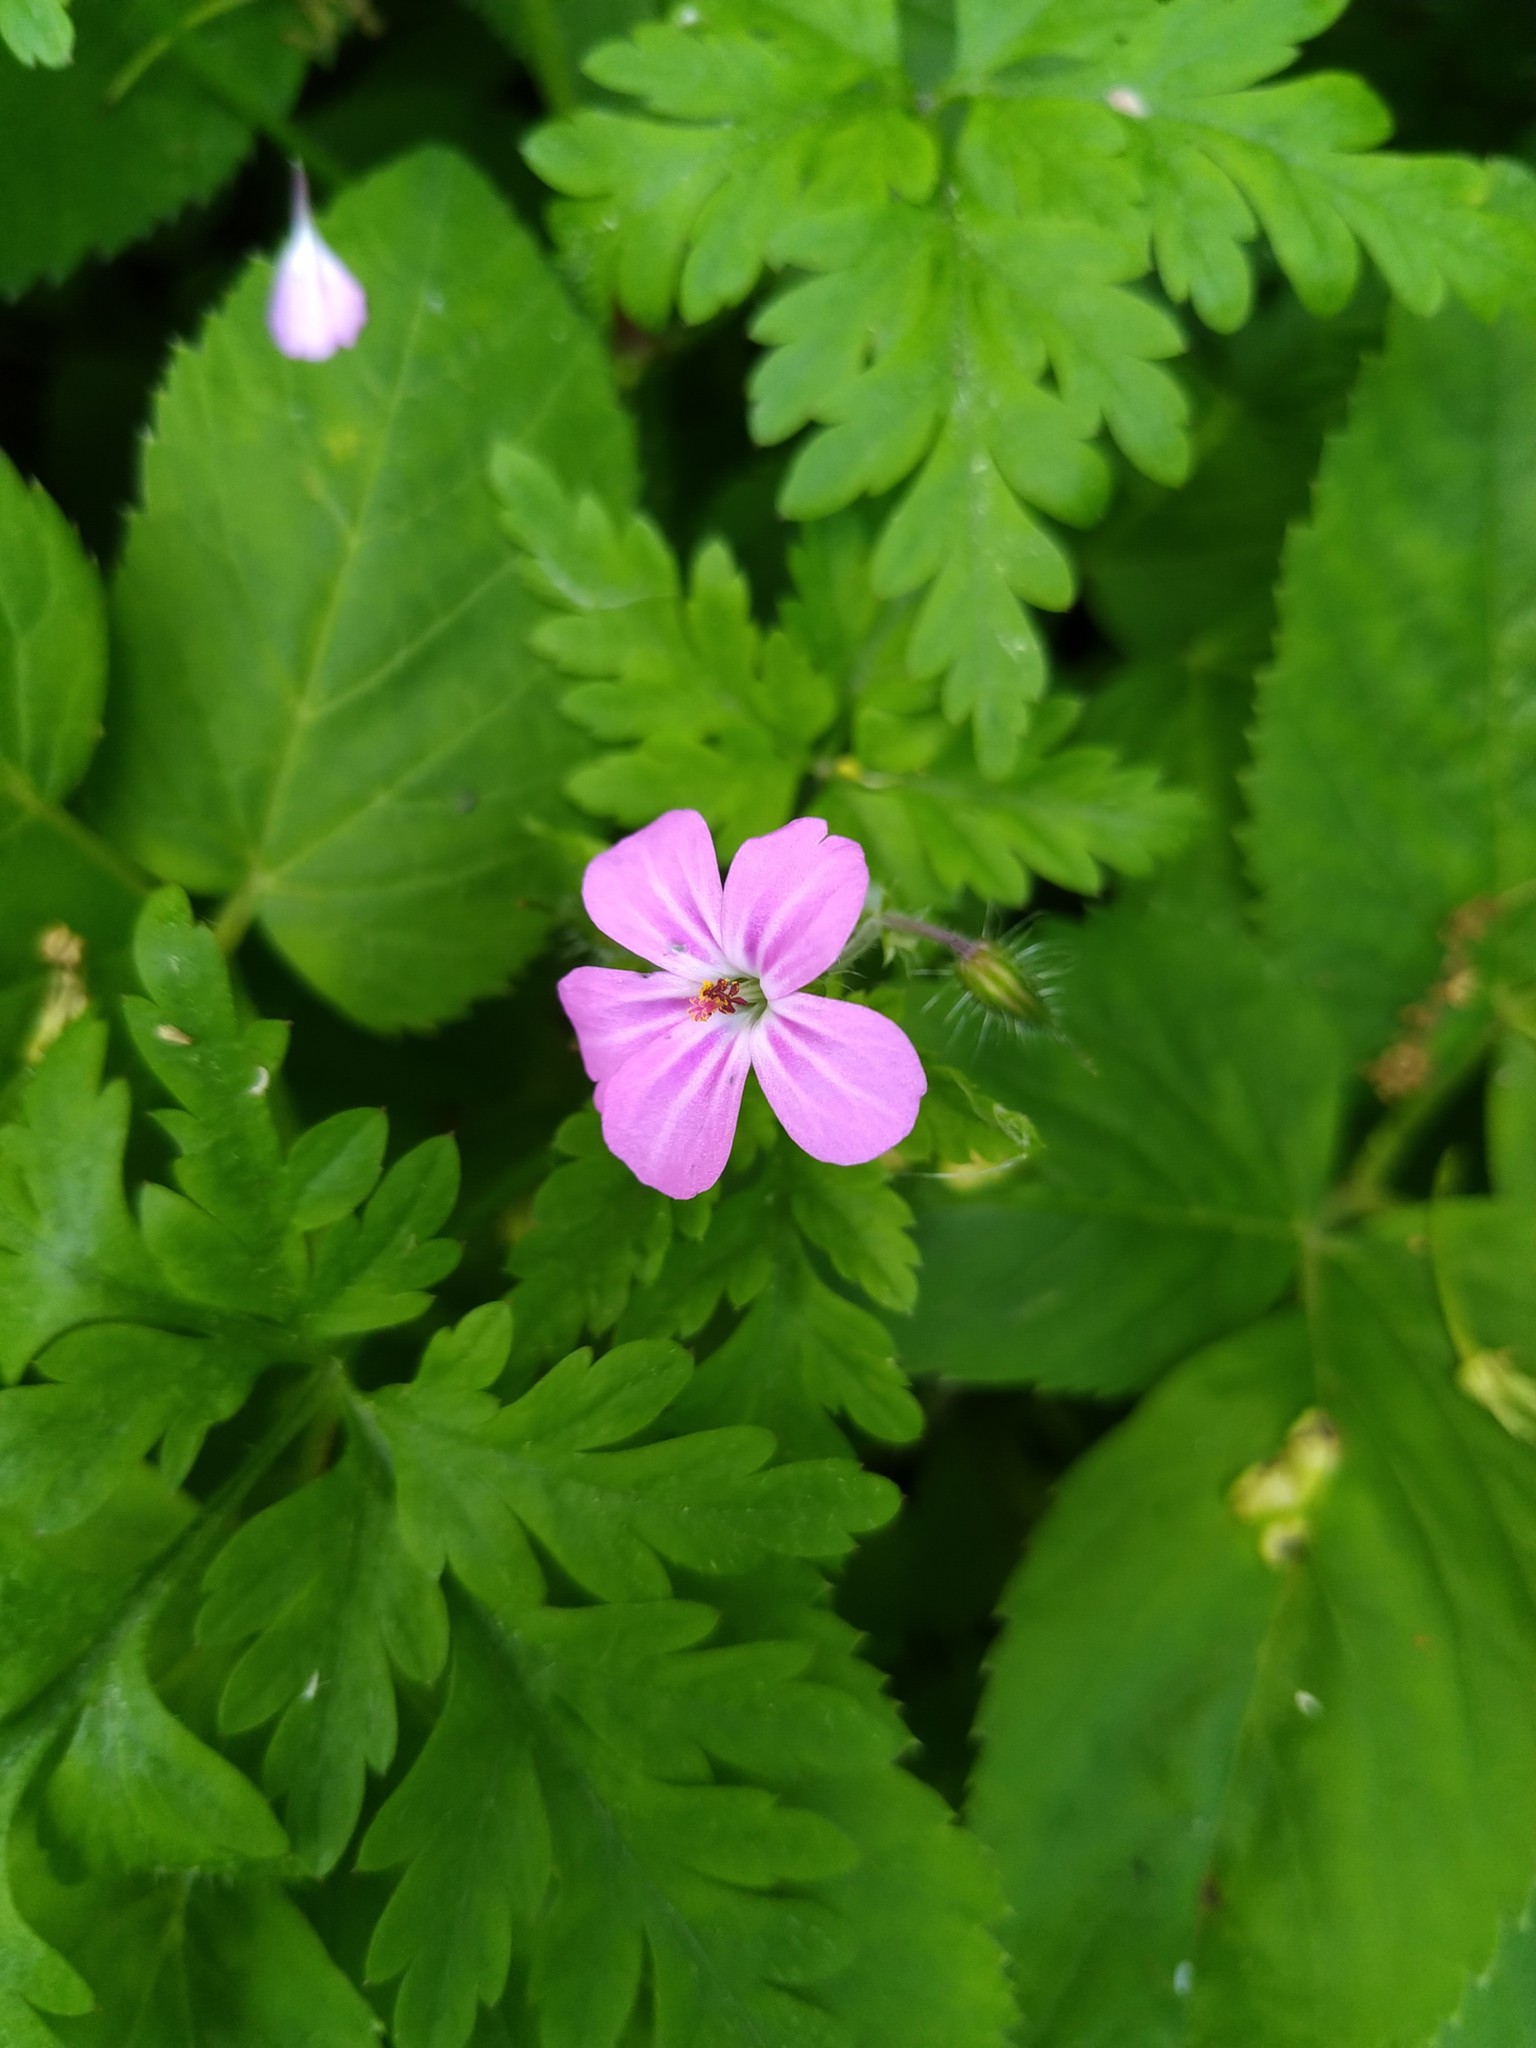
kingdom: Plantae
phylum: Tracheophyta
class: Magnoliopsida
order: Geraniales
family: Geraniaceae
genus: Geranium
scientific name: Geranium robertianum
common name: Herb-robert
